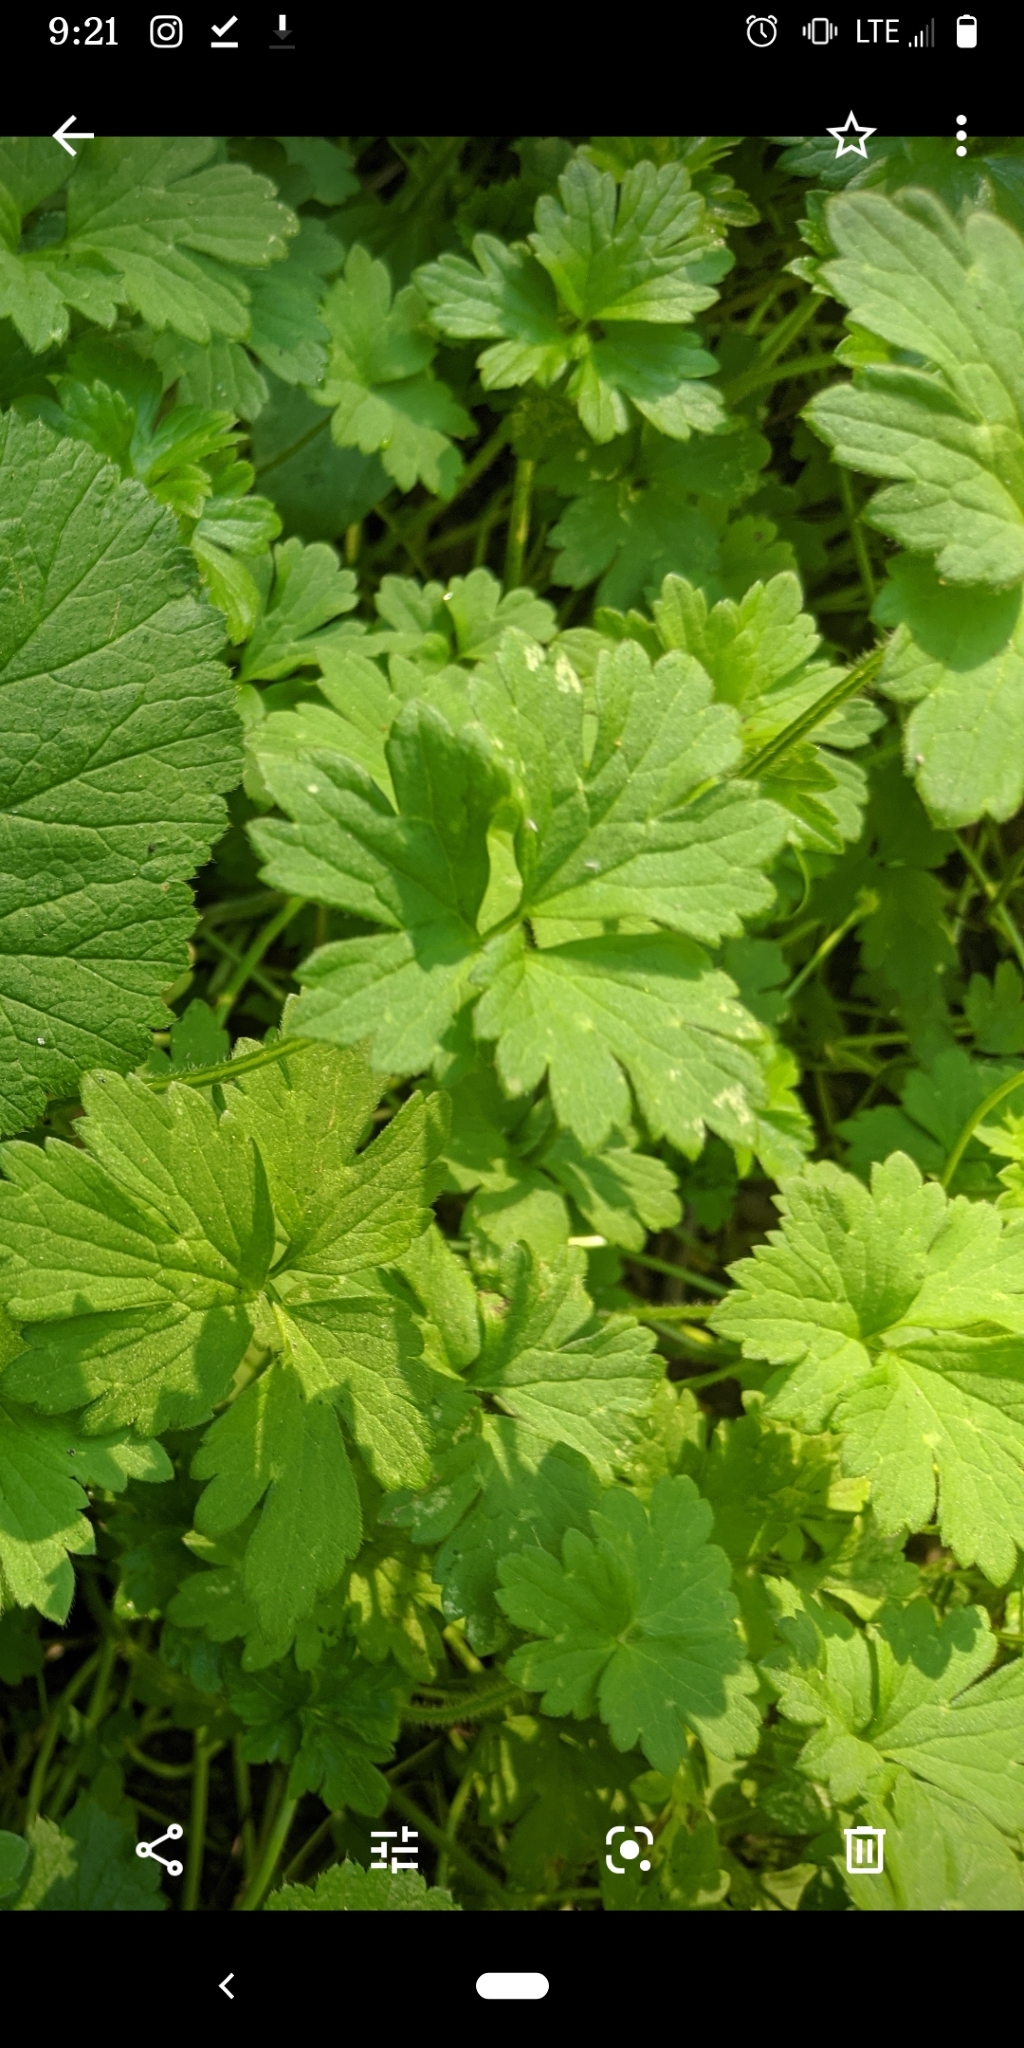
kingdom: Plantae
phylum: Tracheophyta
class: Magnoliopsida
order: Ranunculales
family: Ranunculaceae
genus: Ranunculus
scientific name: Ranunculus repens
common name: Creeping buttercup
